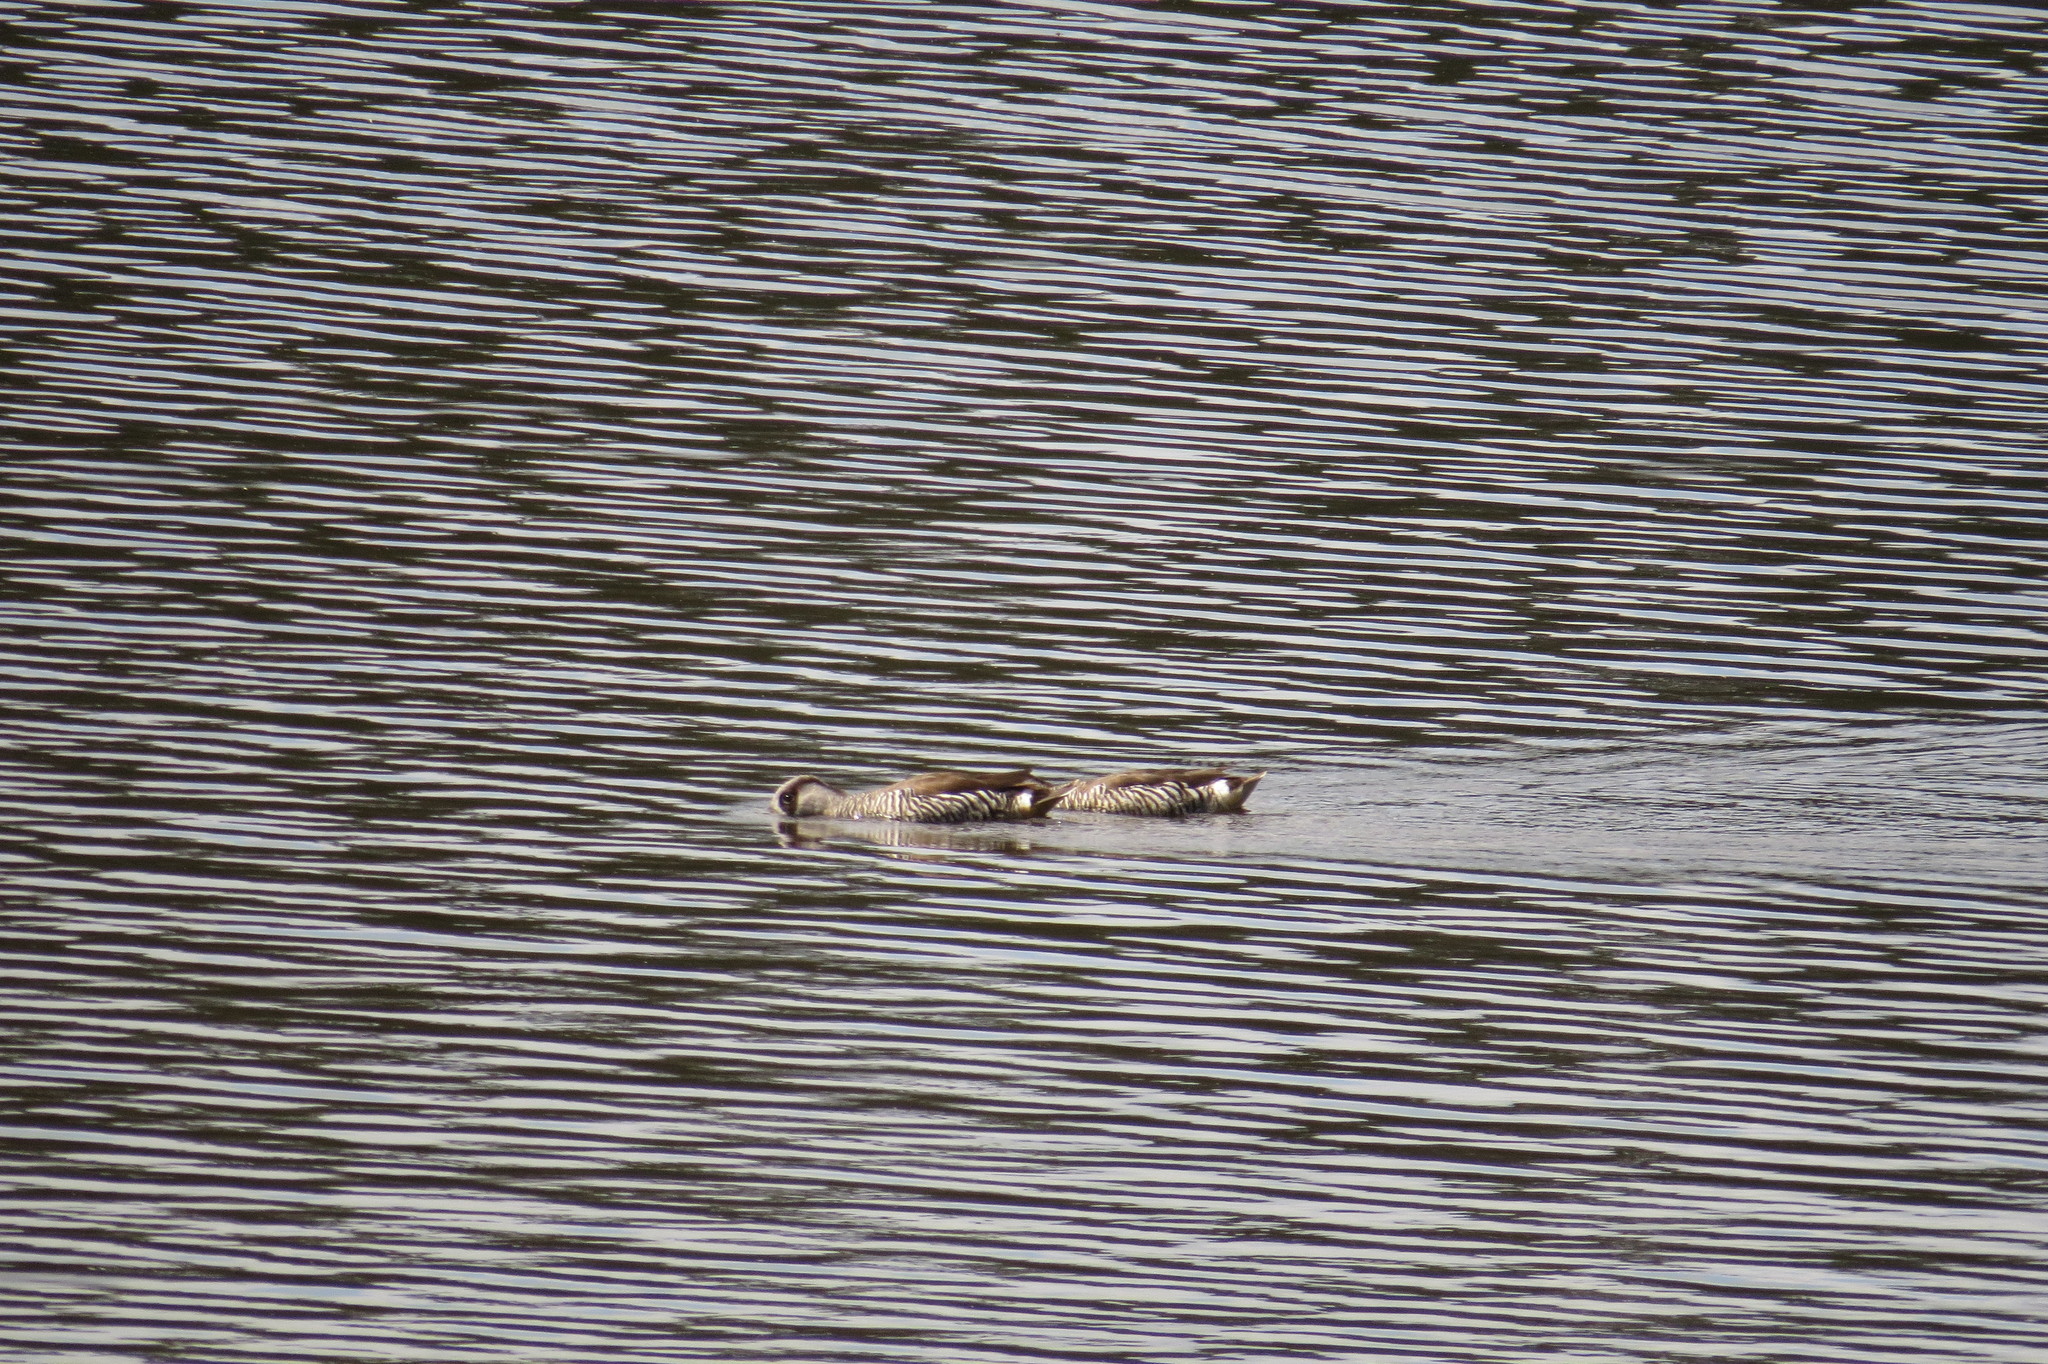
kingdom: Animalia
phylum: Chordata
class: Aves
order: Anseriformes
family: Anatidae
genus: Malacorhynchus
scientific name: Malacorhynchus membranaceus
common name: Pink-eared duck
